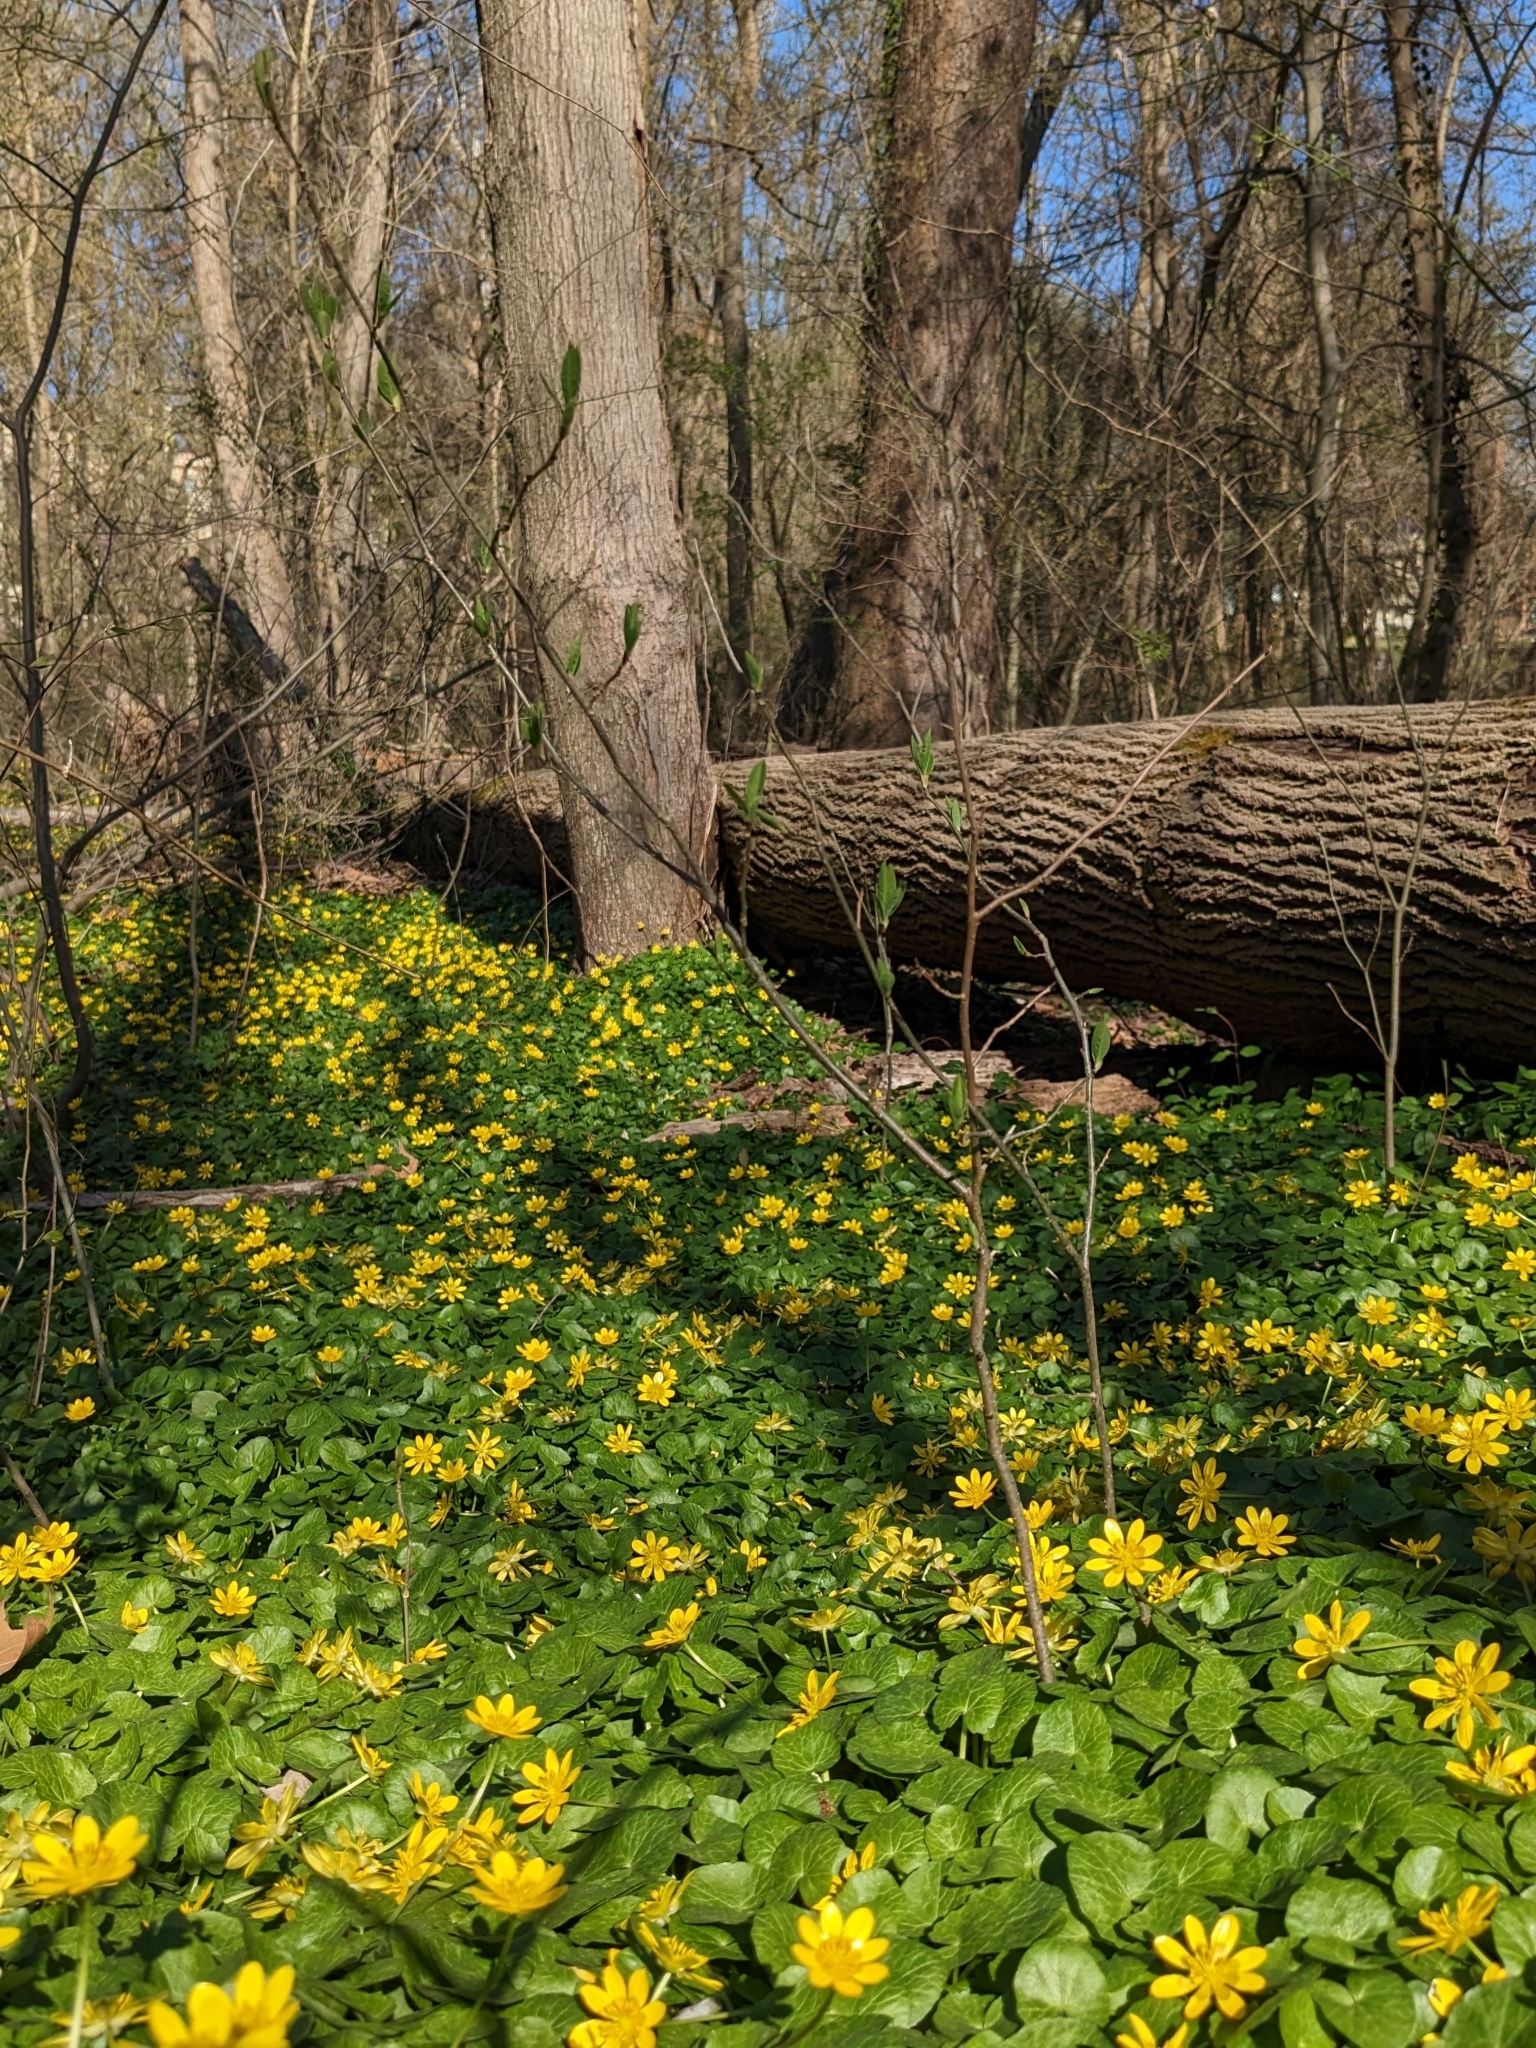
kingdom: Plantae
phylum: Tracheophyta
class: Magnoliopsida
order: Ranunculales
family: Ranunculaceae
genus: Ficaria
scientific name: Ficaria verna
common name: Lesser celandine
